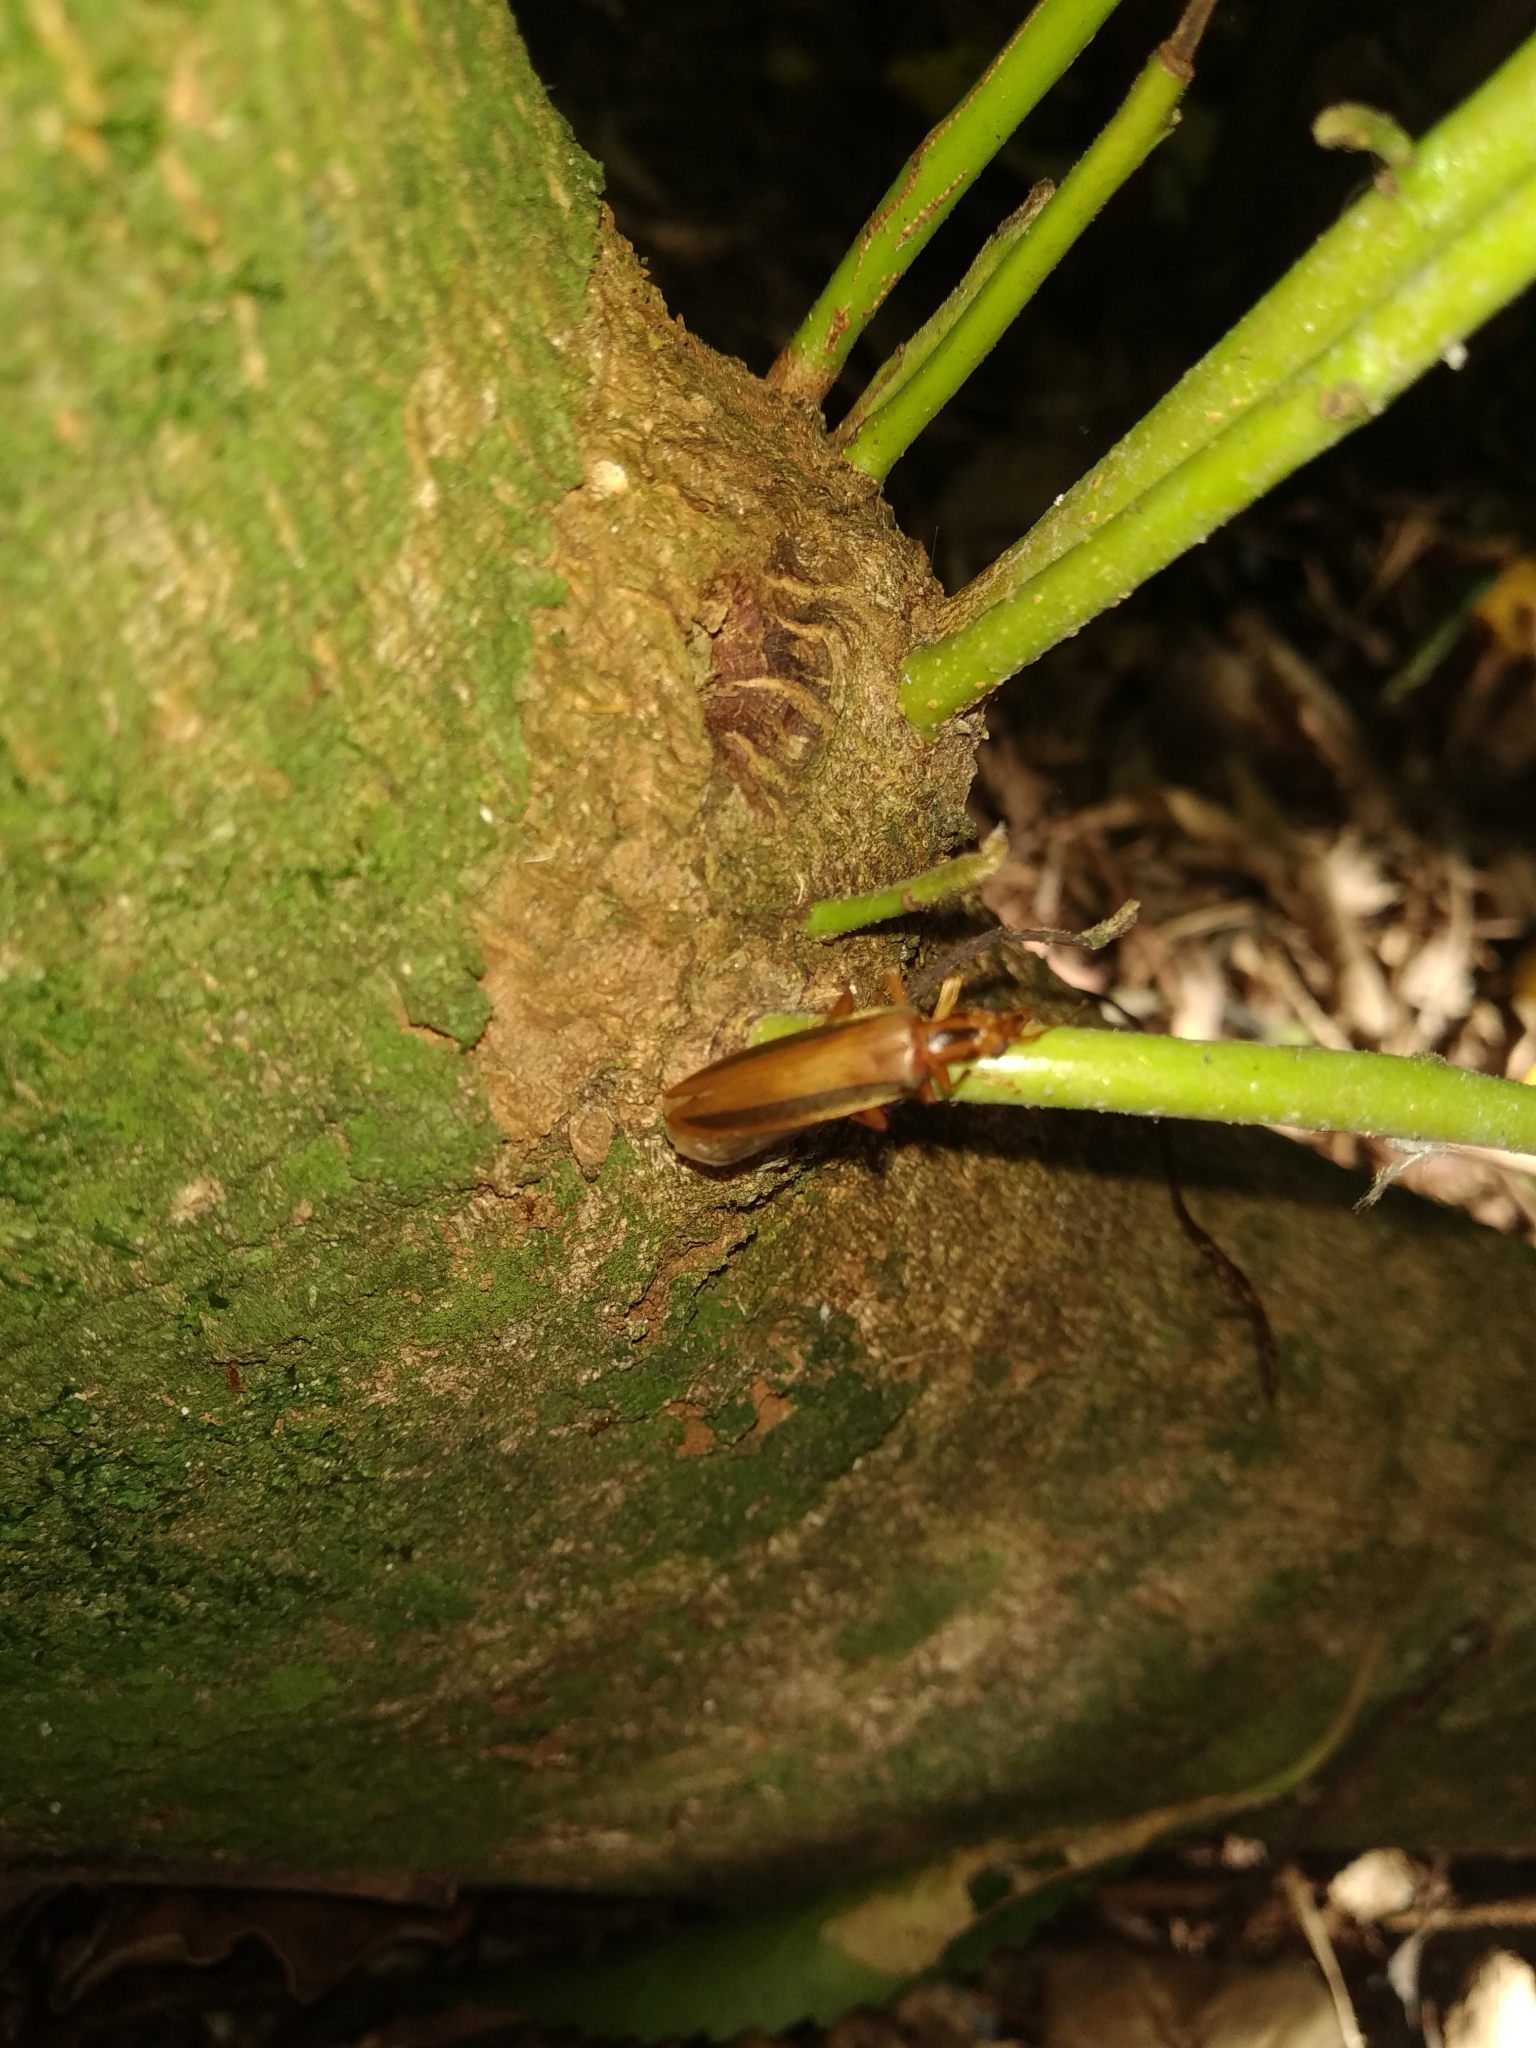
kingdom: Animalia
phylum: Arthropoda
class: Insecta
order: Coleoptera
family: Oedemeridae
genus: Thelyphassa
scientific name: Thelyphassa
